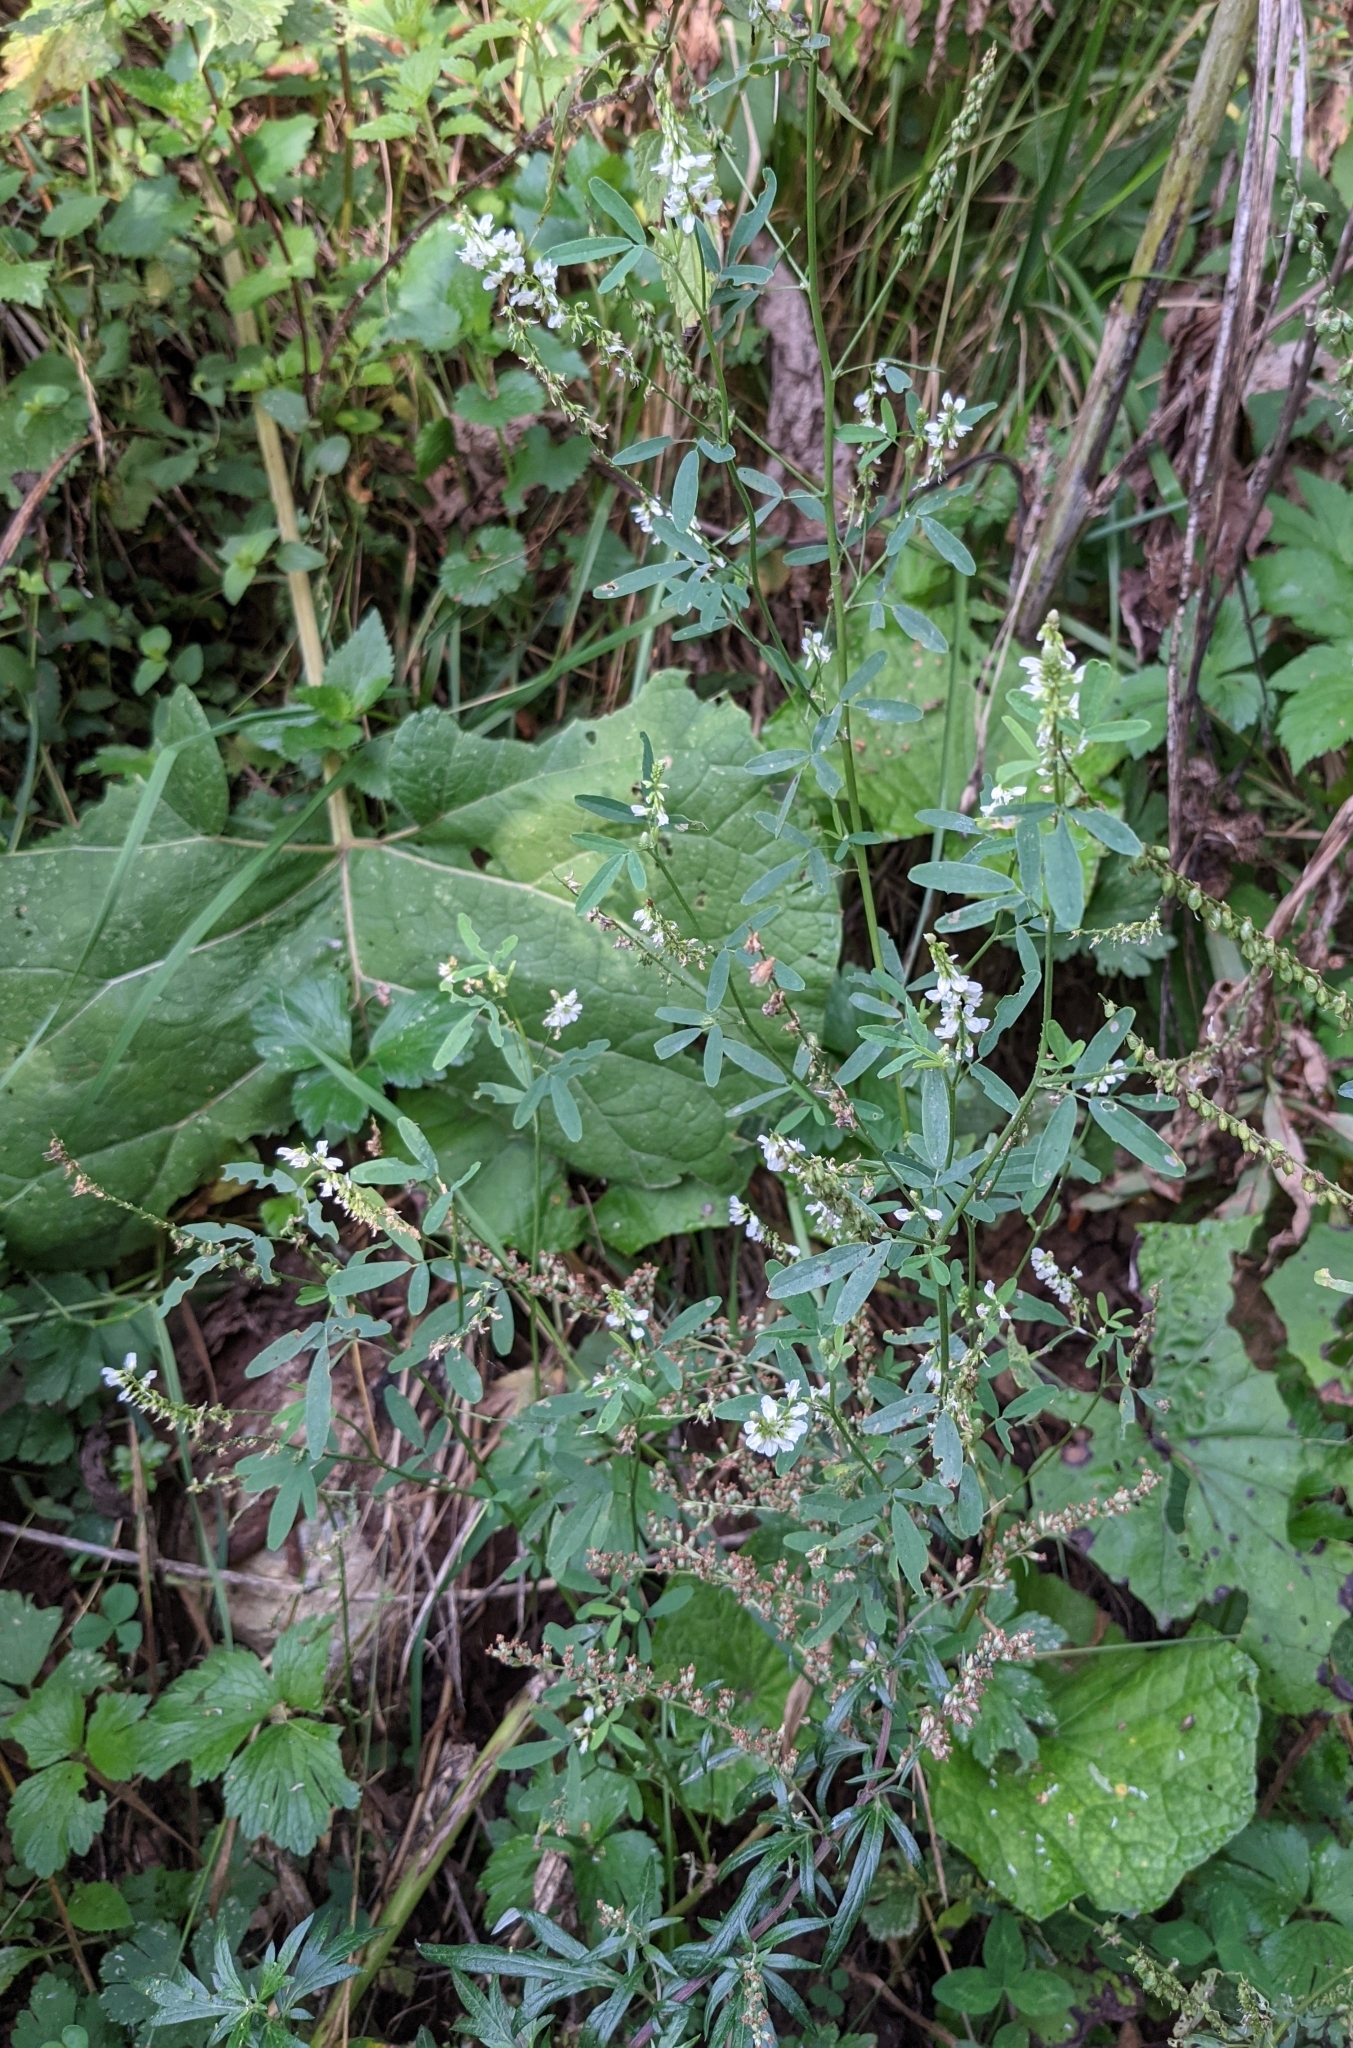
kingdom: Plantae
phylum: Tracheophyta
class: Magnoliopsida
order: Fabales
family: Fabaceae
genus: Melilotus
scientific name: Melilotus albus
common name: White melilot
